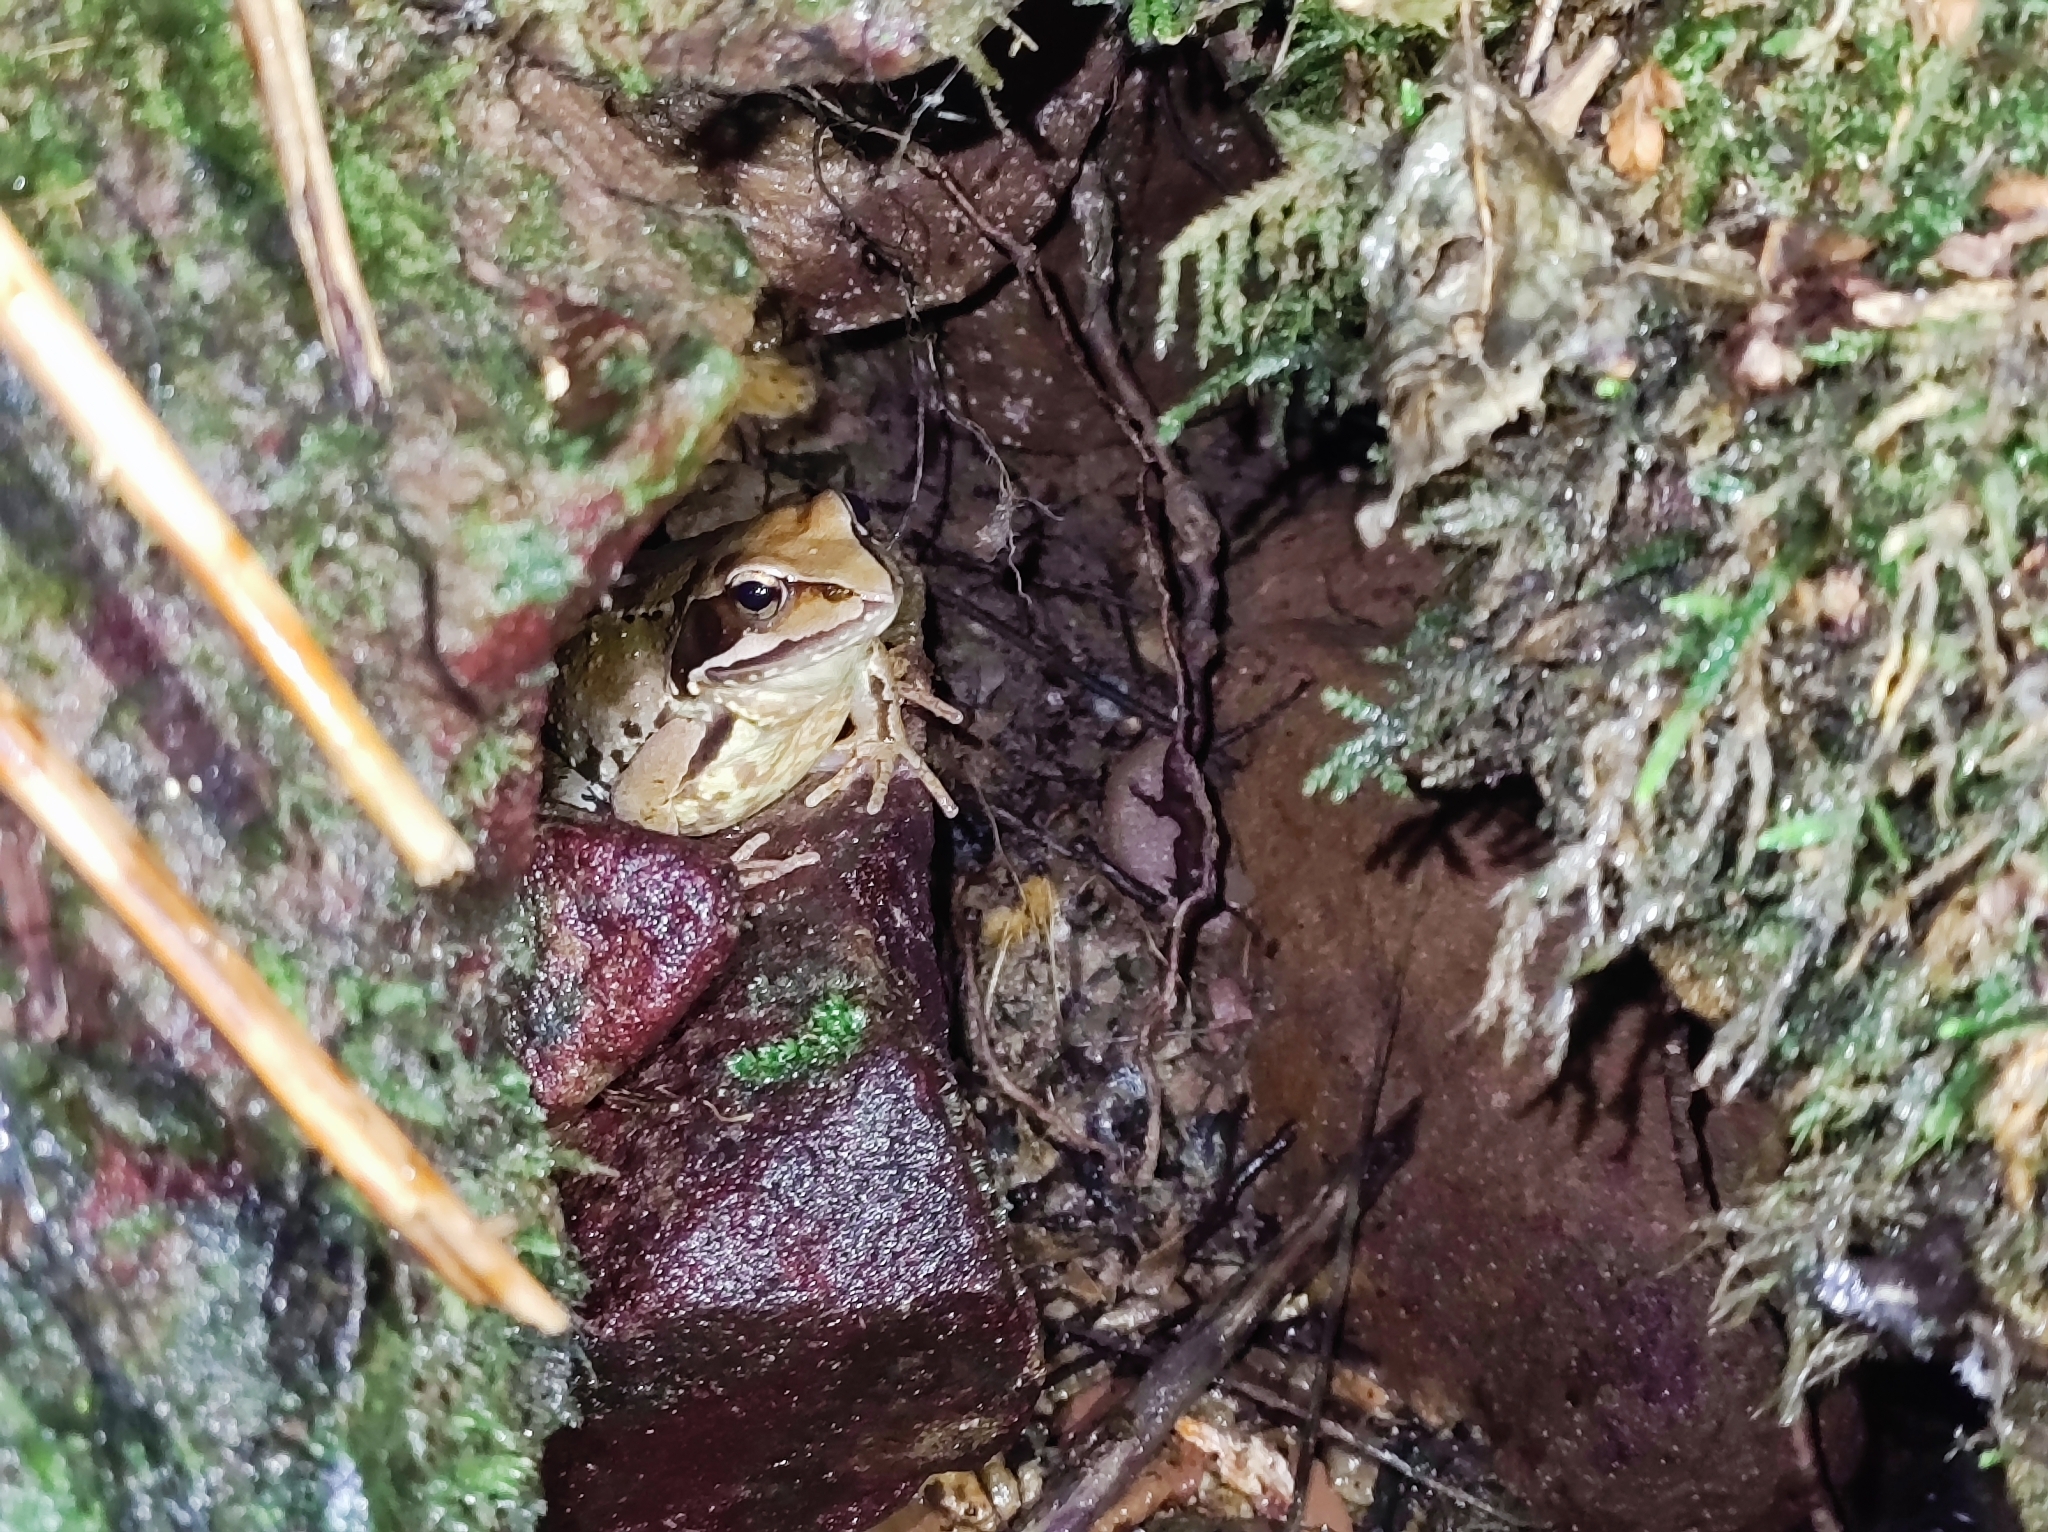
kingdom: Animalia
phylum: Chordata
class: Amphibia
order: Anura
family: Ranidae
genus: Rana
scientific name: Rana temporaria
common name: Common frog
